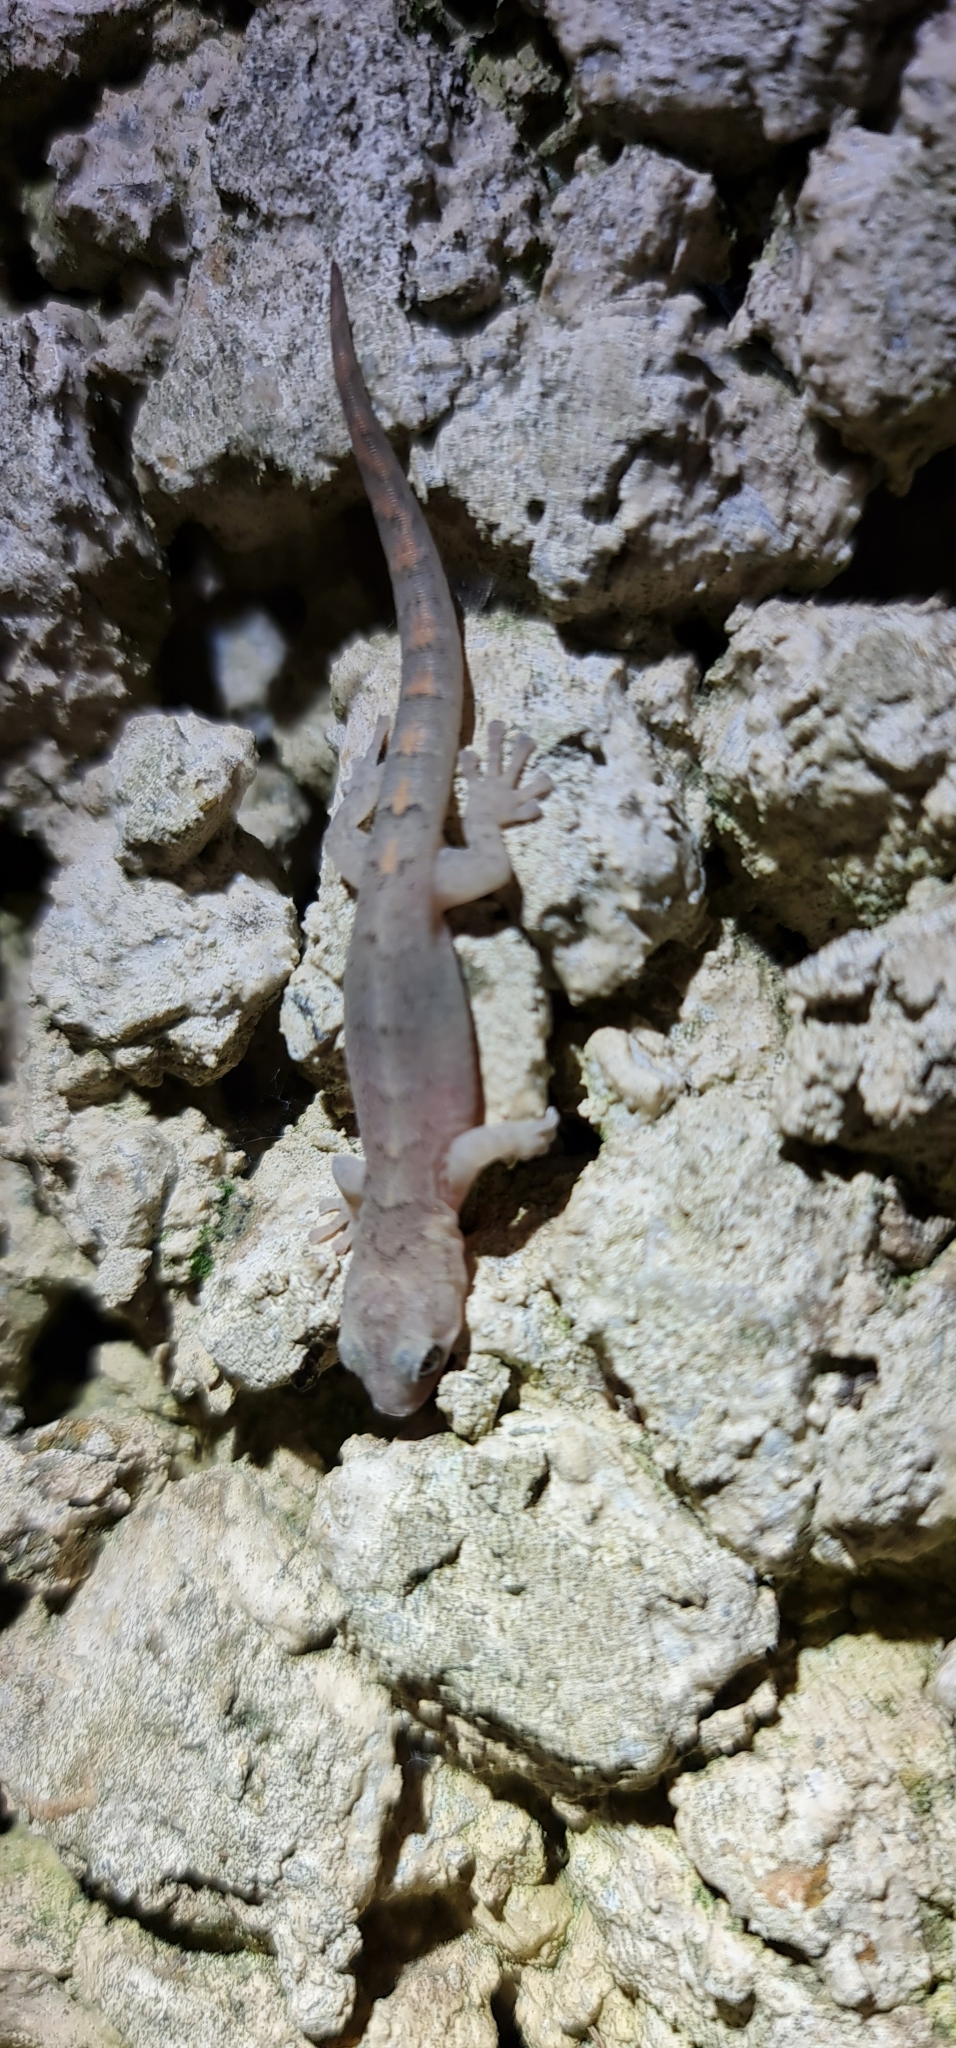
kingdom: Animalia
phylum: Chordata
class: Squamata
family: Gekkonidae
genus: Christinus
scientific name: Christinus marmoratus
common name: Marbled gecko
